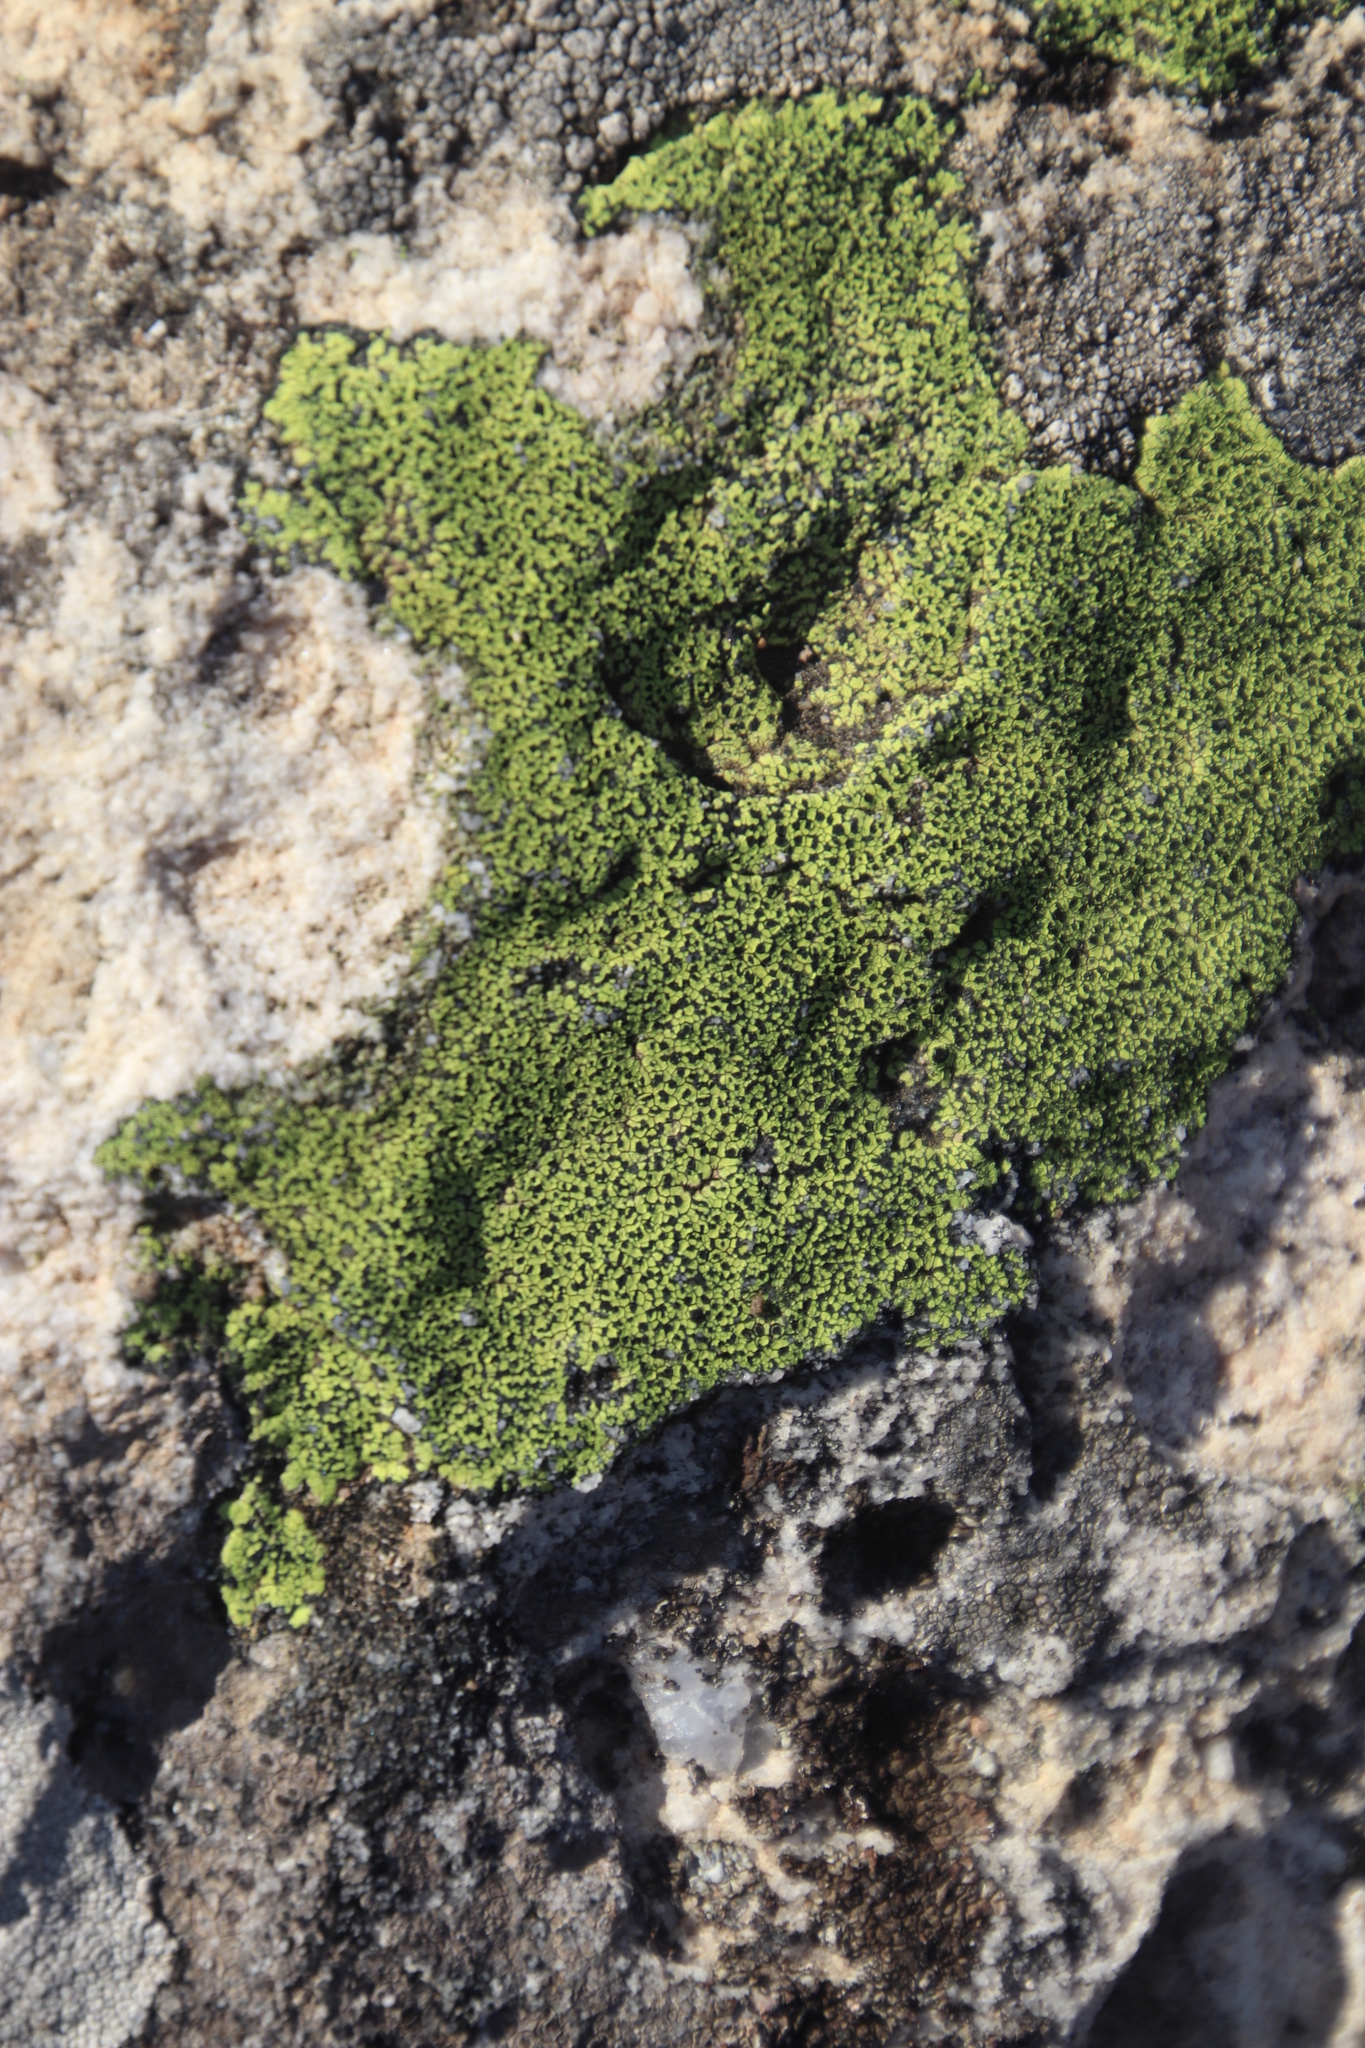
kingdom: Fungi
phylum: Ascomycota
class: Lecanoromycetes
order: Rhizocarpales
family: Rhizocarpaceae
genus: Rhizocarpon
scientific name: Rhizocarpon lecanorinum
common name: Crescent map lichen
